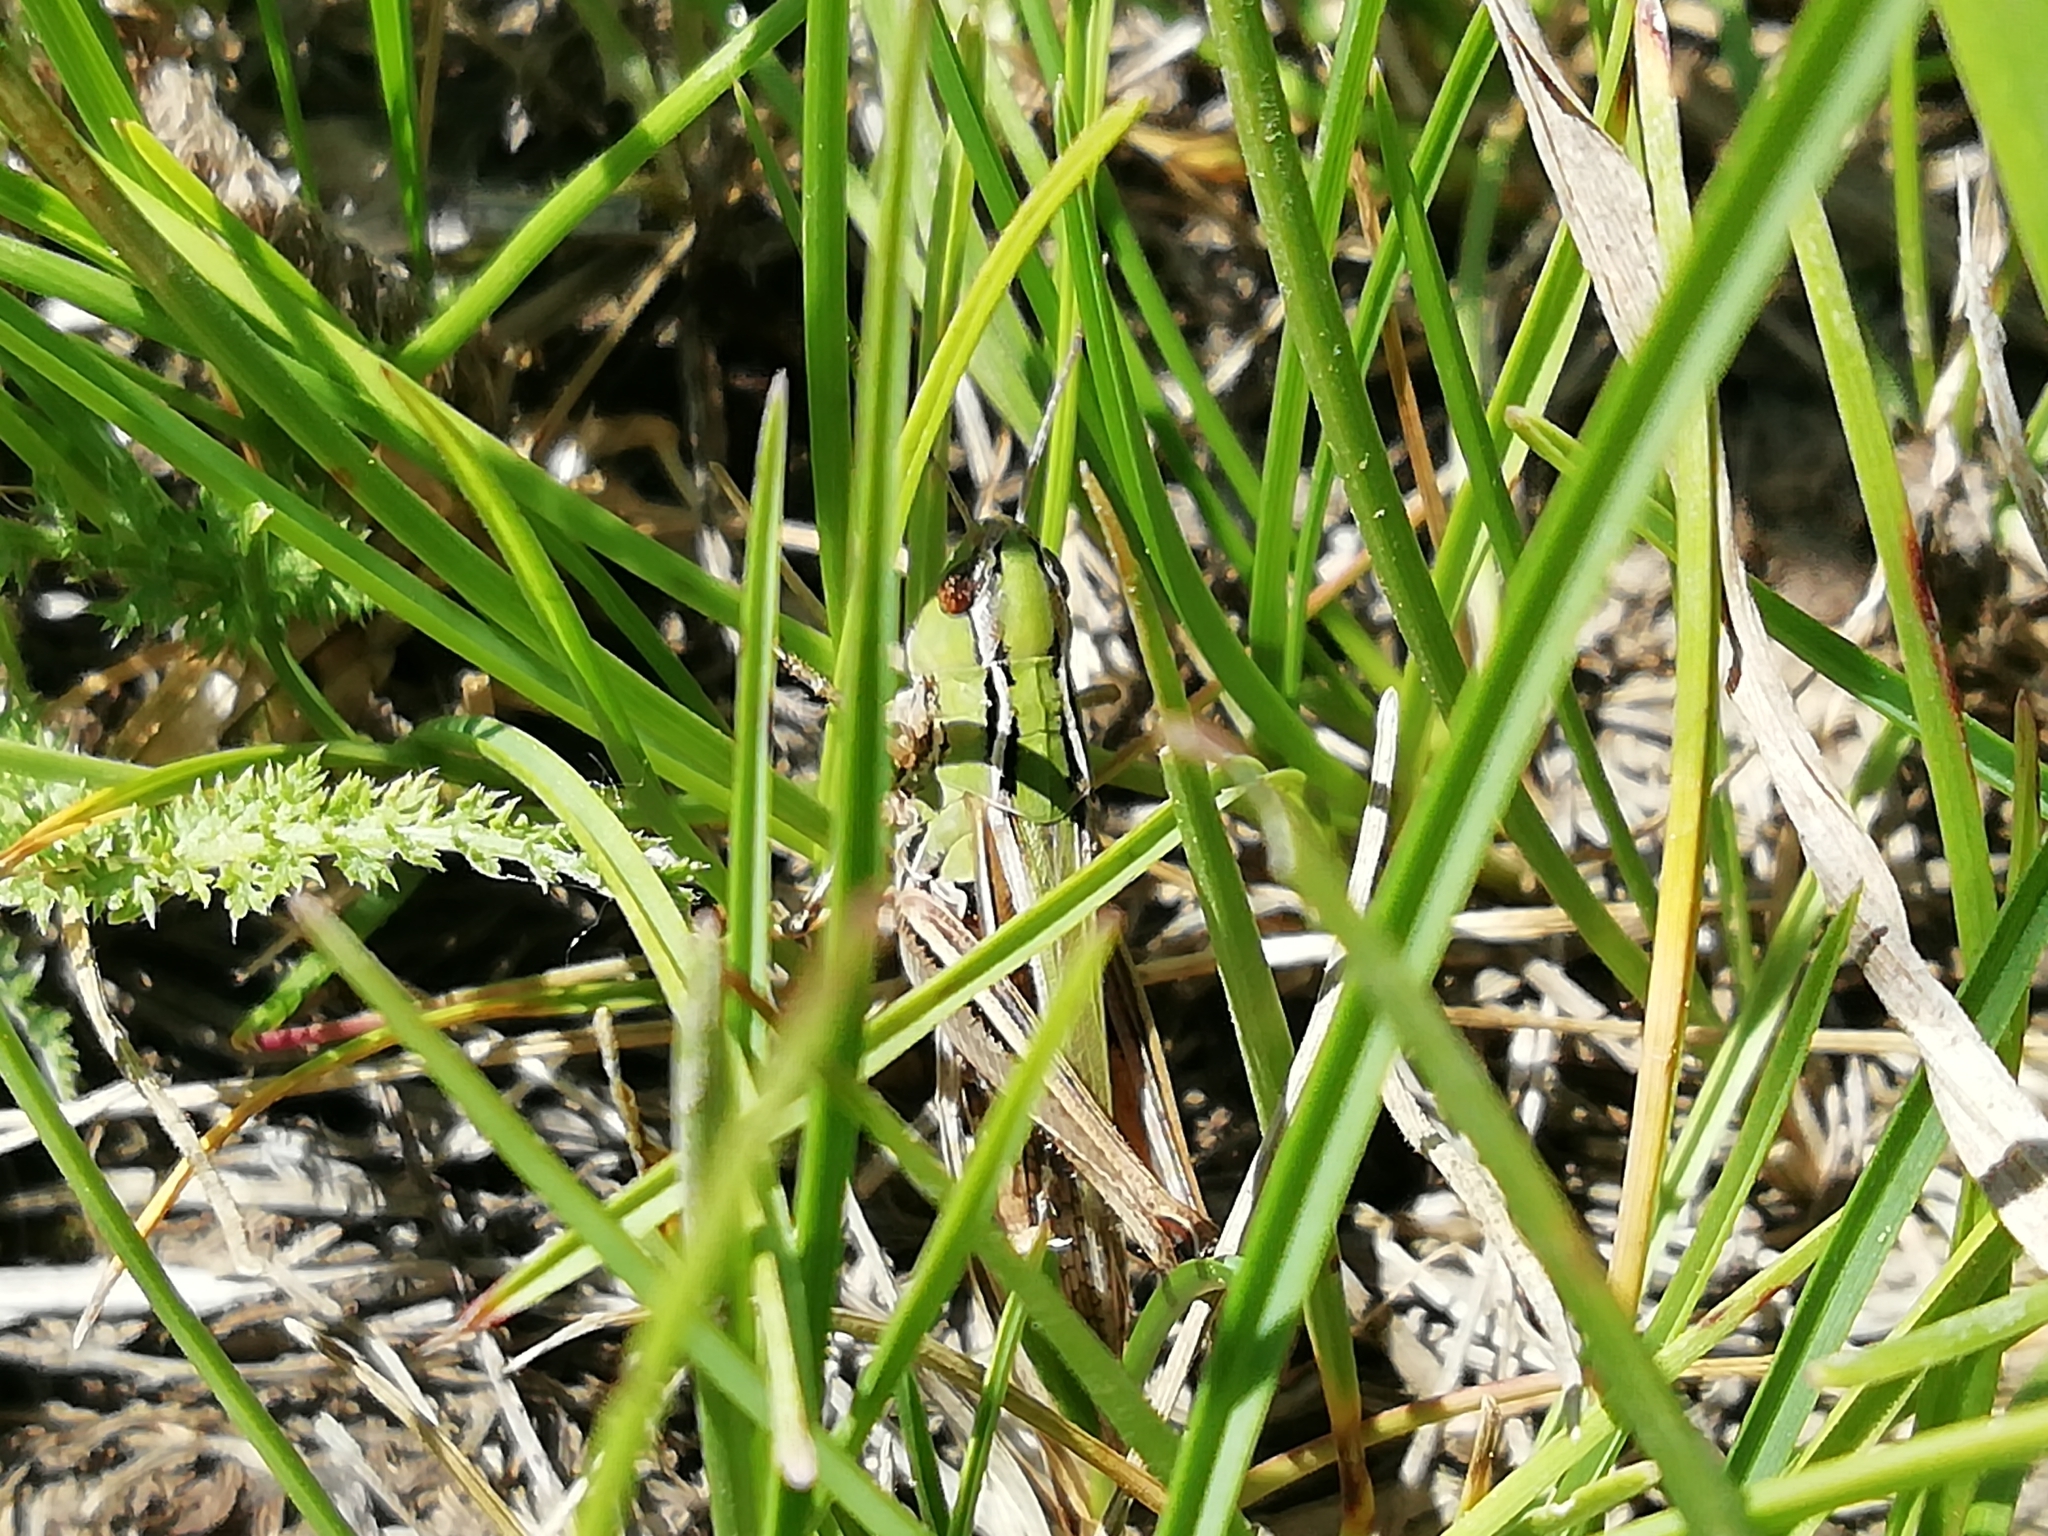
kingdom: Animalia
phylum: Arthropoda
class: Insecta
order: Orthoptera
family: Acrididae
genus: Stenobothrus
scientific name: Stenobothrus lineatus
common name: Stripe-winged grasshopper
